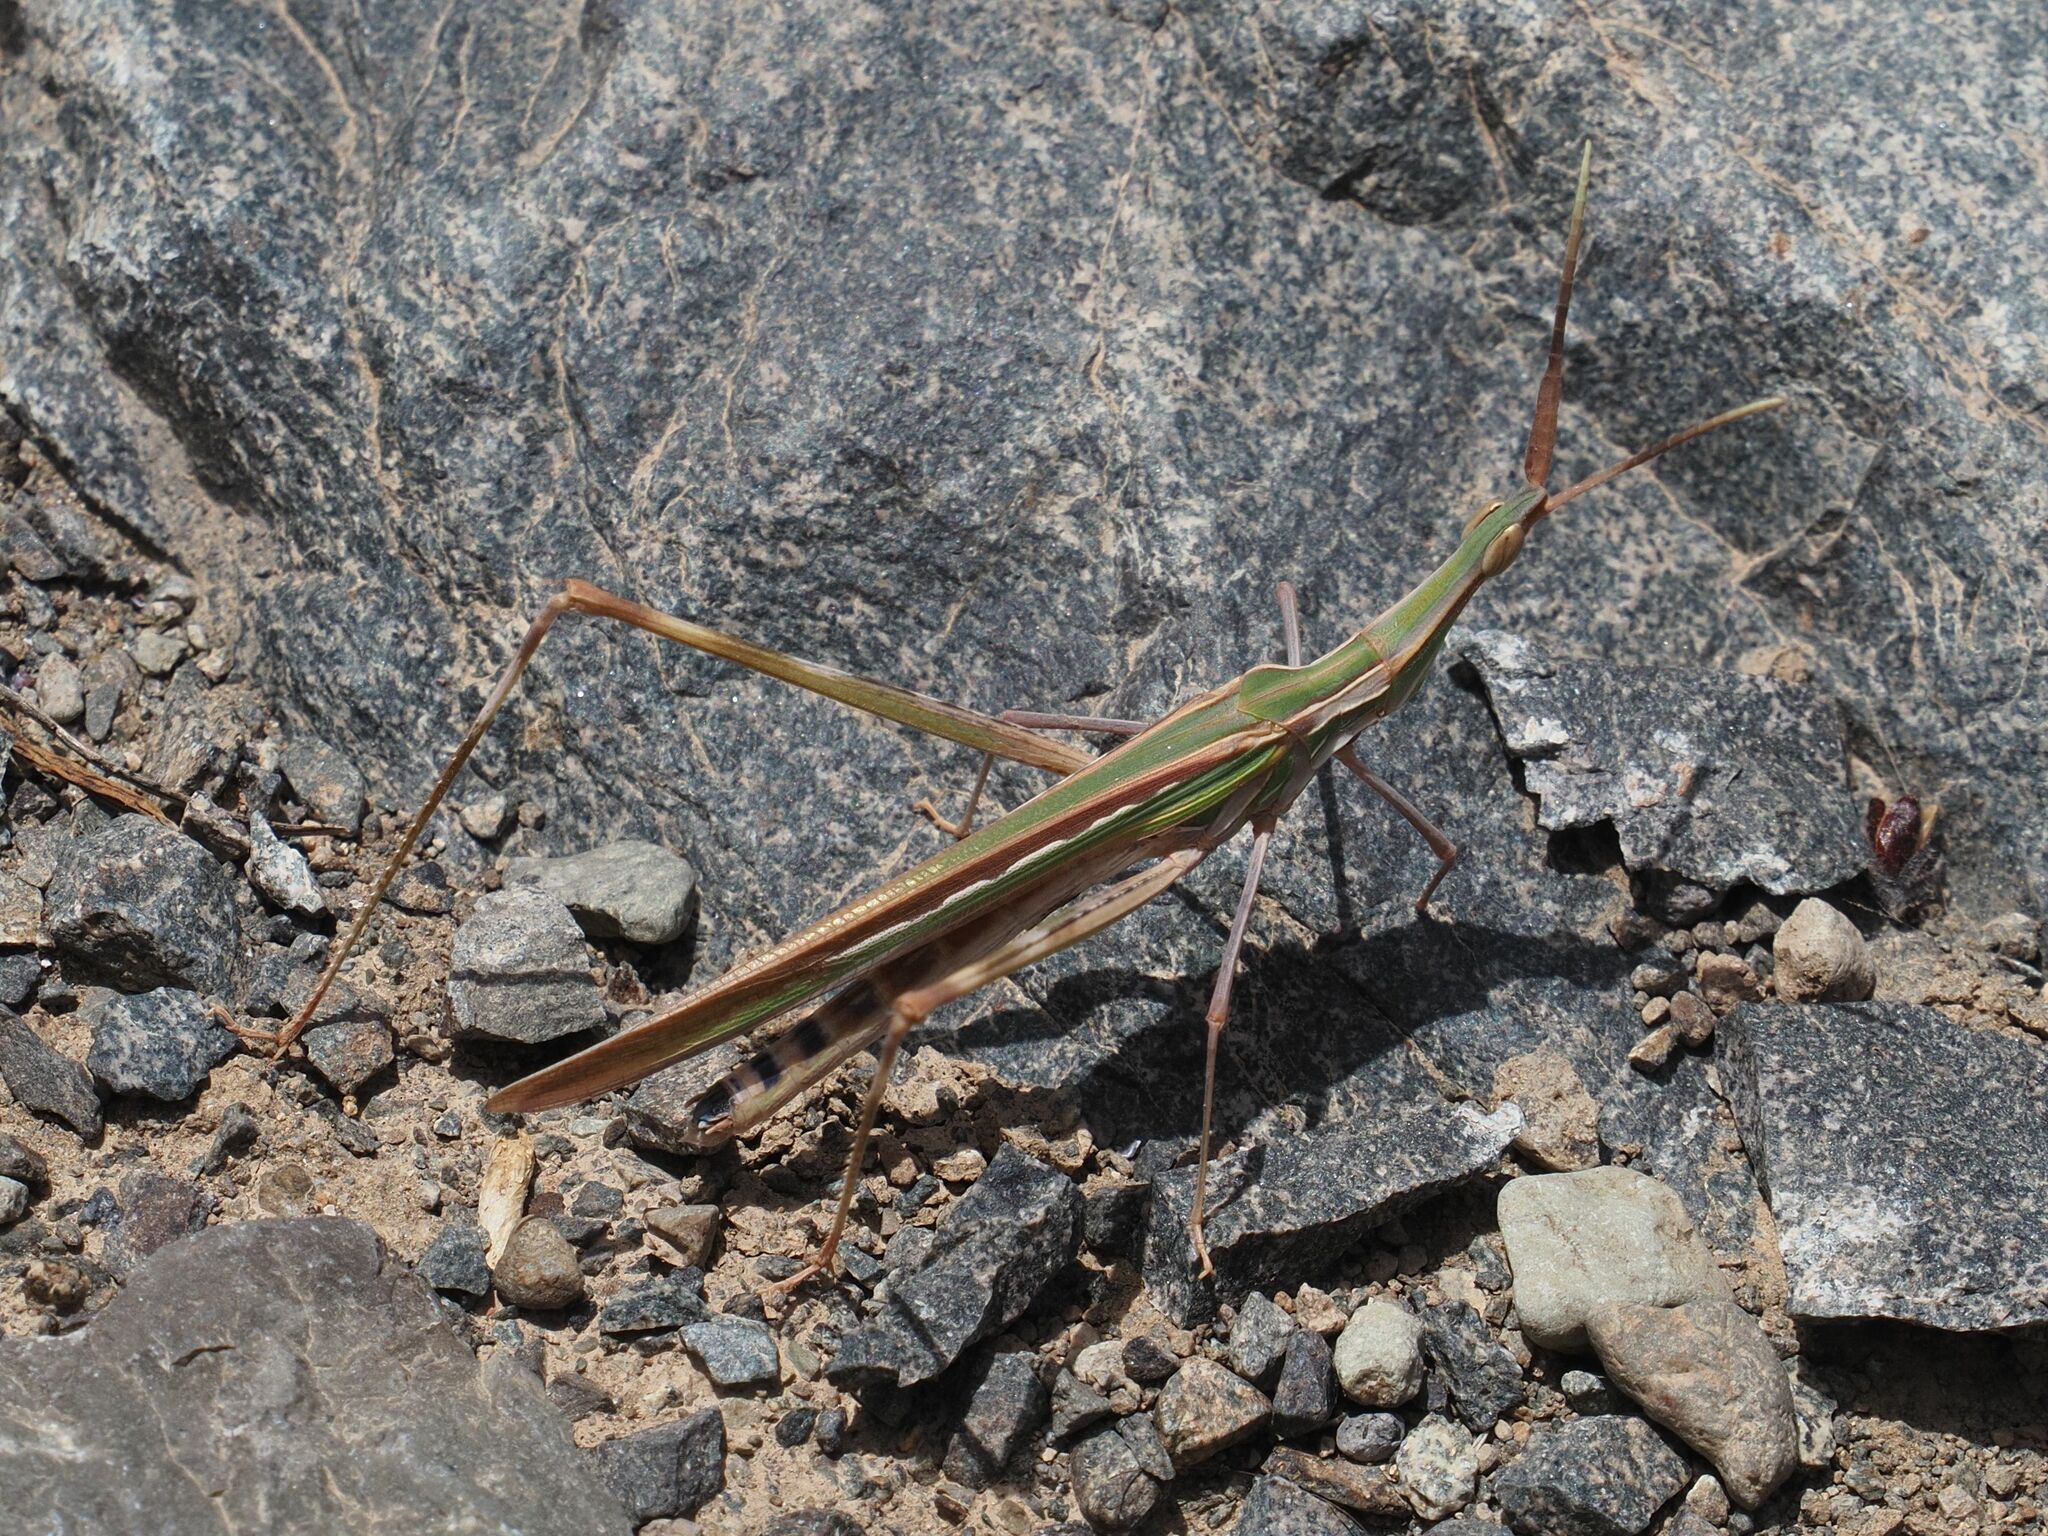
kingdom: Animalia
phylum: Arthropoda
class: Insecta
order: Orthoptera
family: Acrididae
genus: Truxalis
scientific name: Truxalis nasuta
